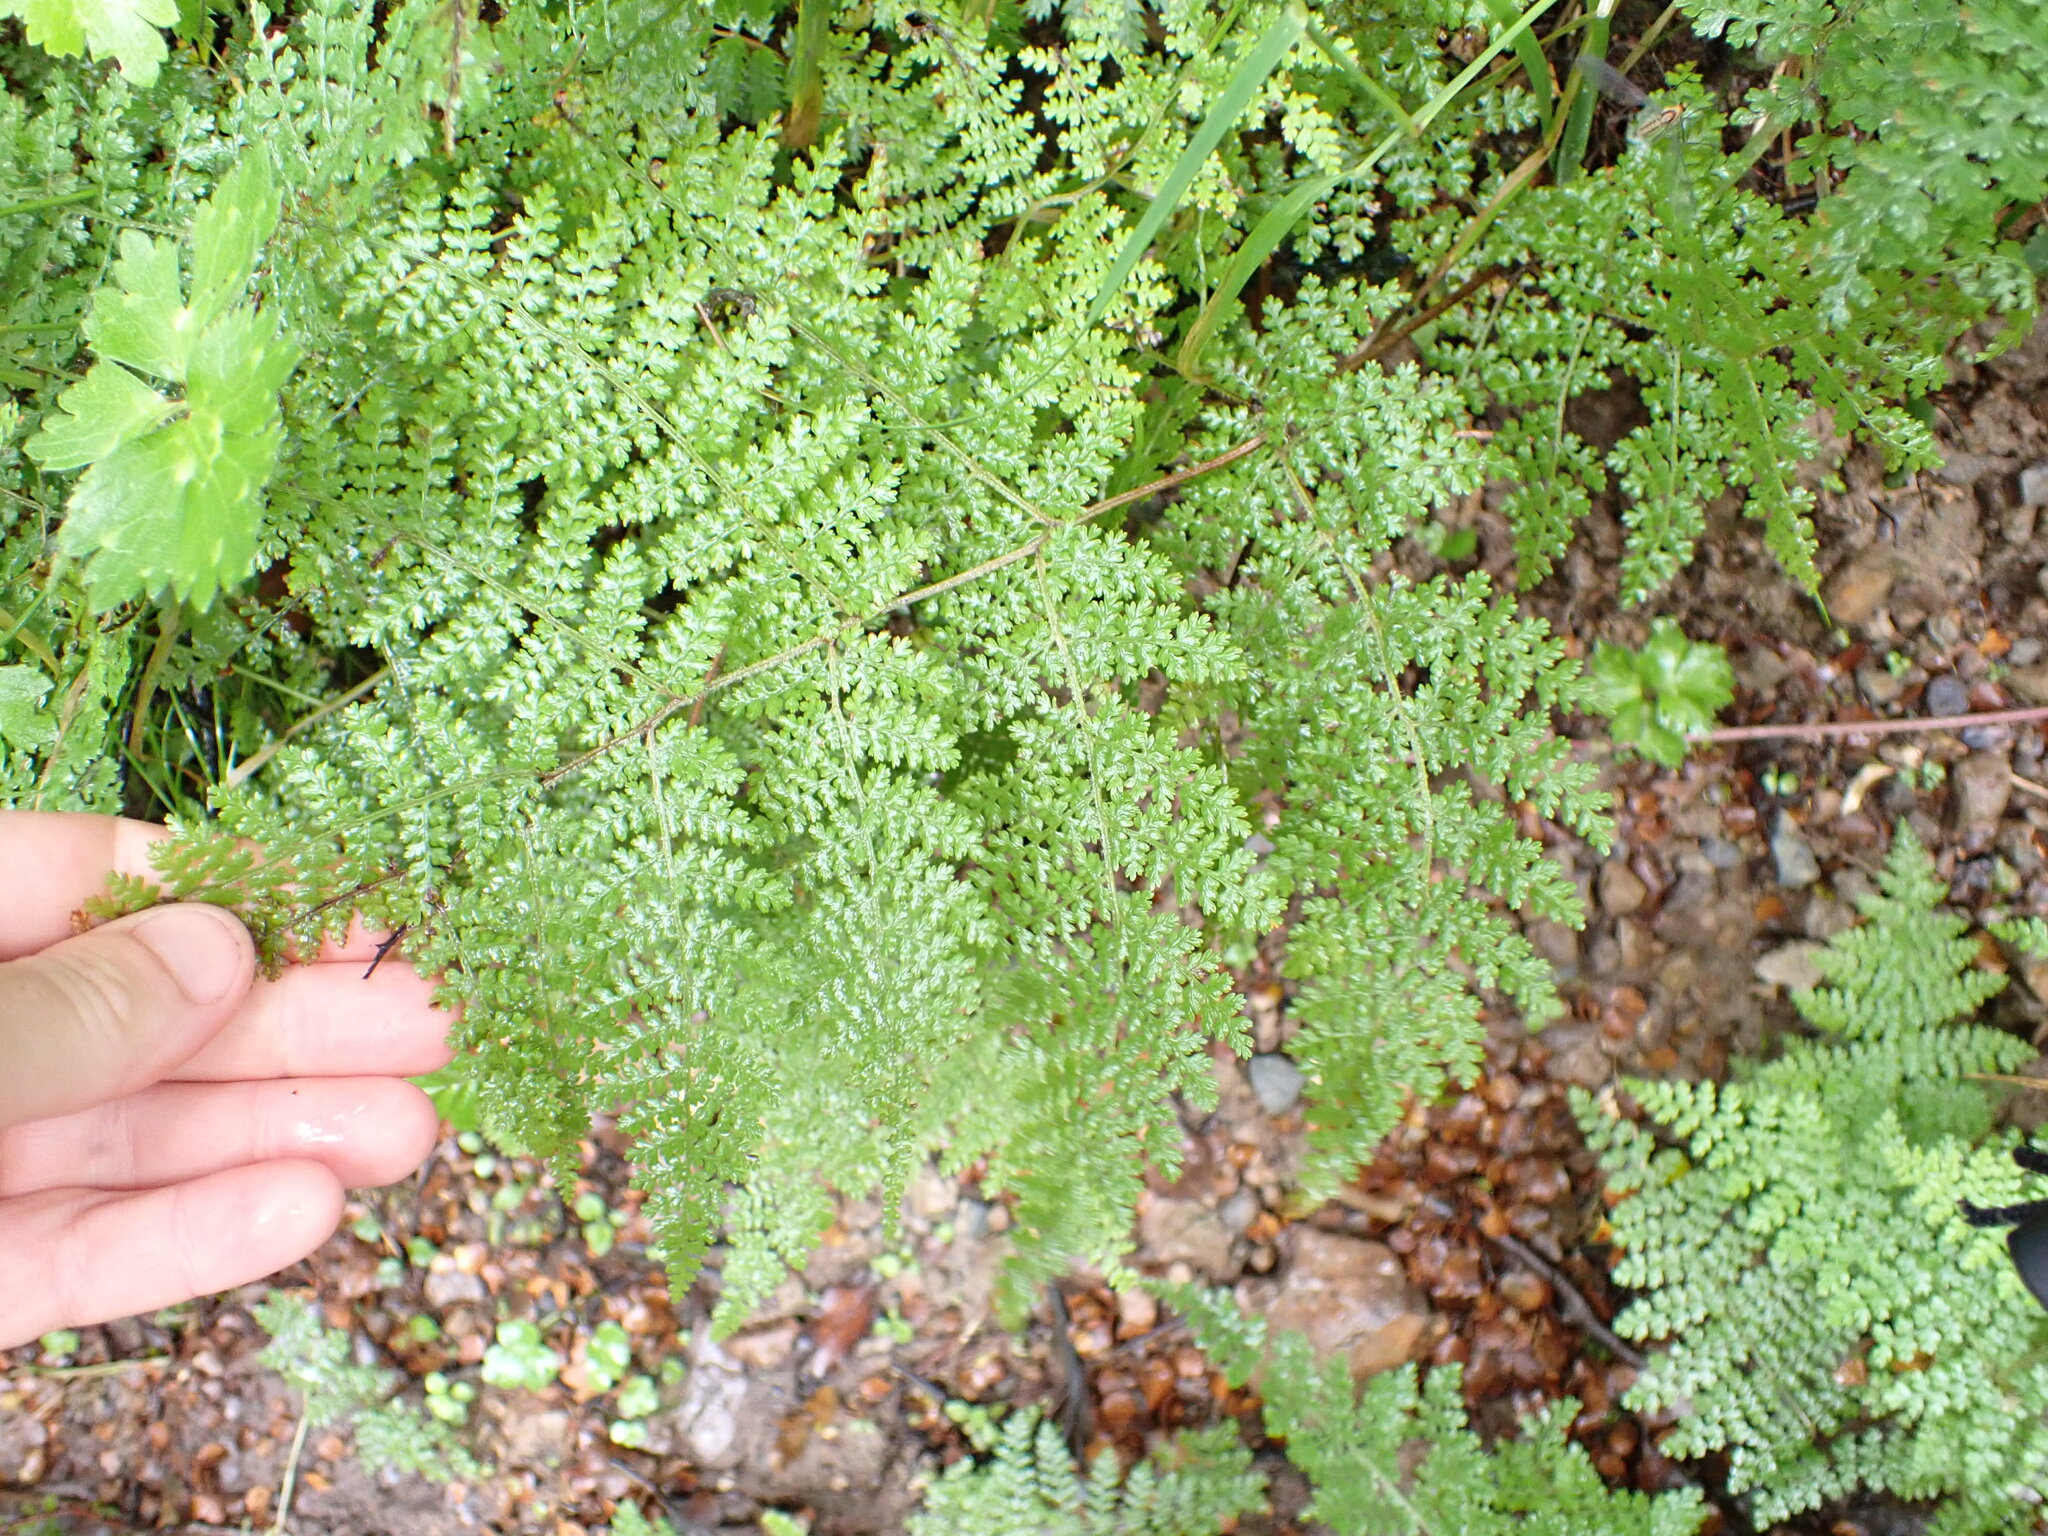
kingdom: Plantae
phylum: Tracheophyta
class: Polypodiopsida
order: Polypodiales
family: Dennstaedtiaceae
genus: Hypolepis
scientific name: Hypolepis millefolium
